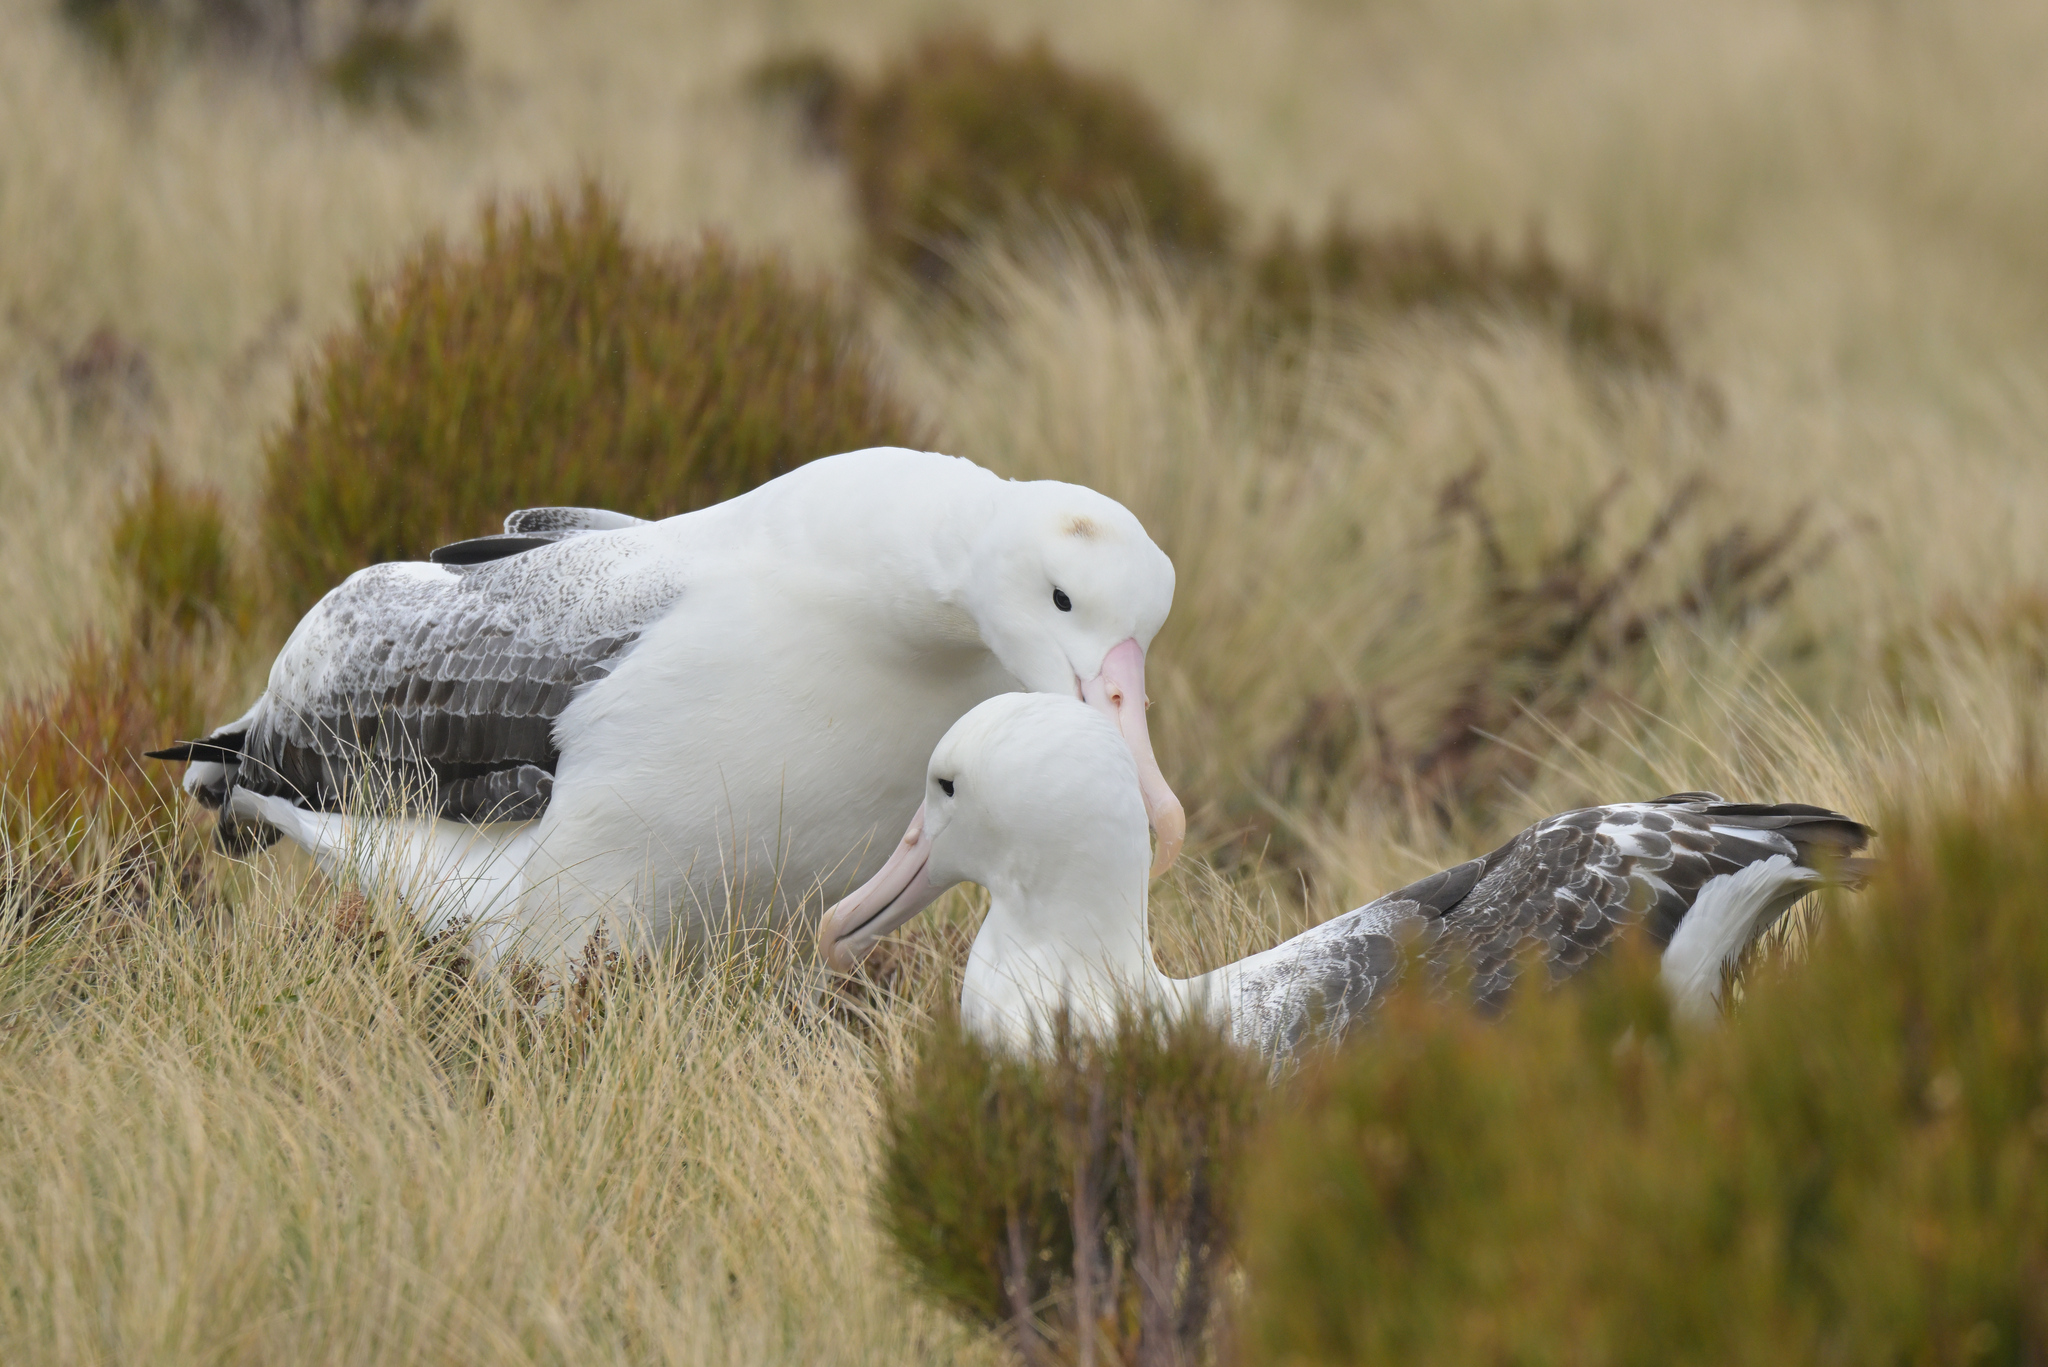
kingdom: Animalia
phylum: Chordata
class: Aves
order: Procellariiformes
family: Diomedeidae
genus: Diomedea
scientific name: Diomedea epomophora
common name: Southern royal albatross
